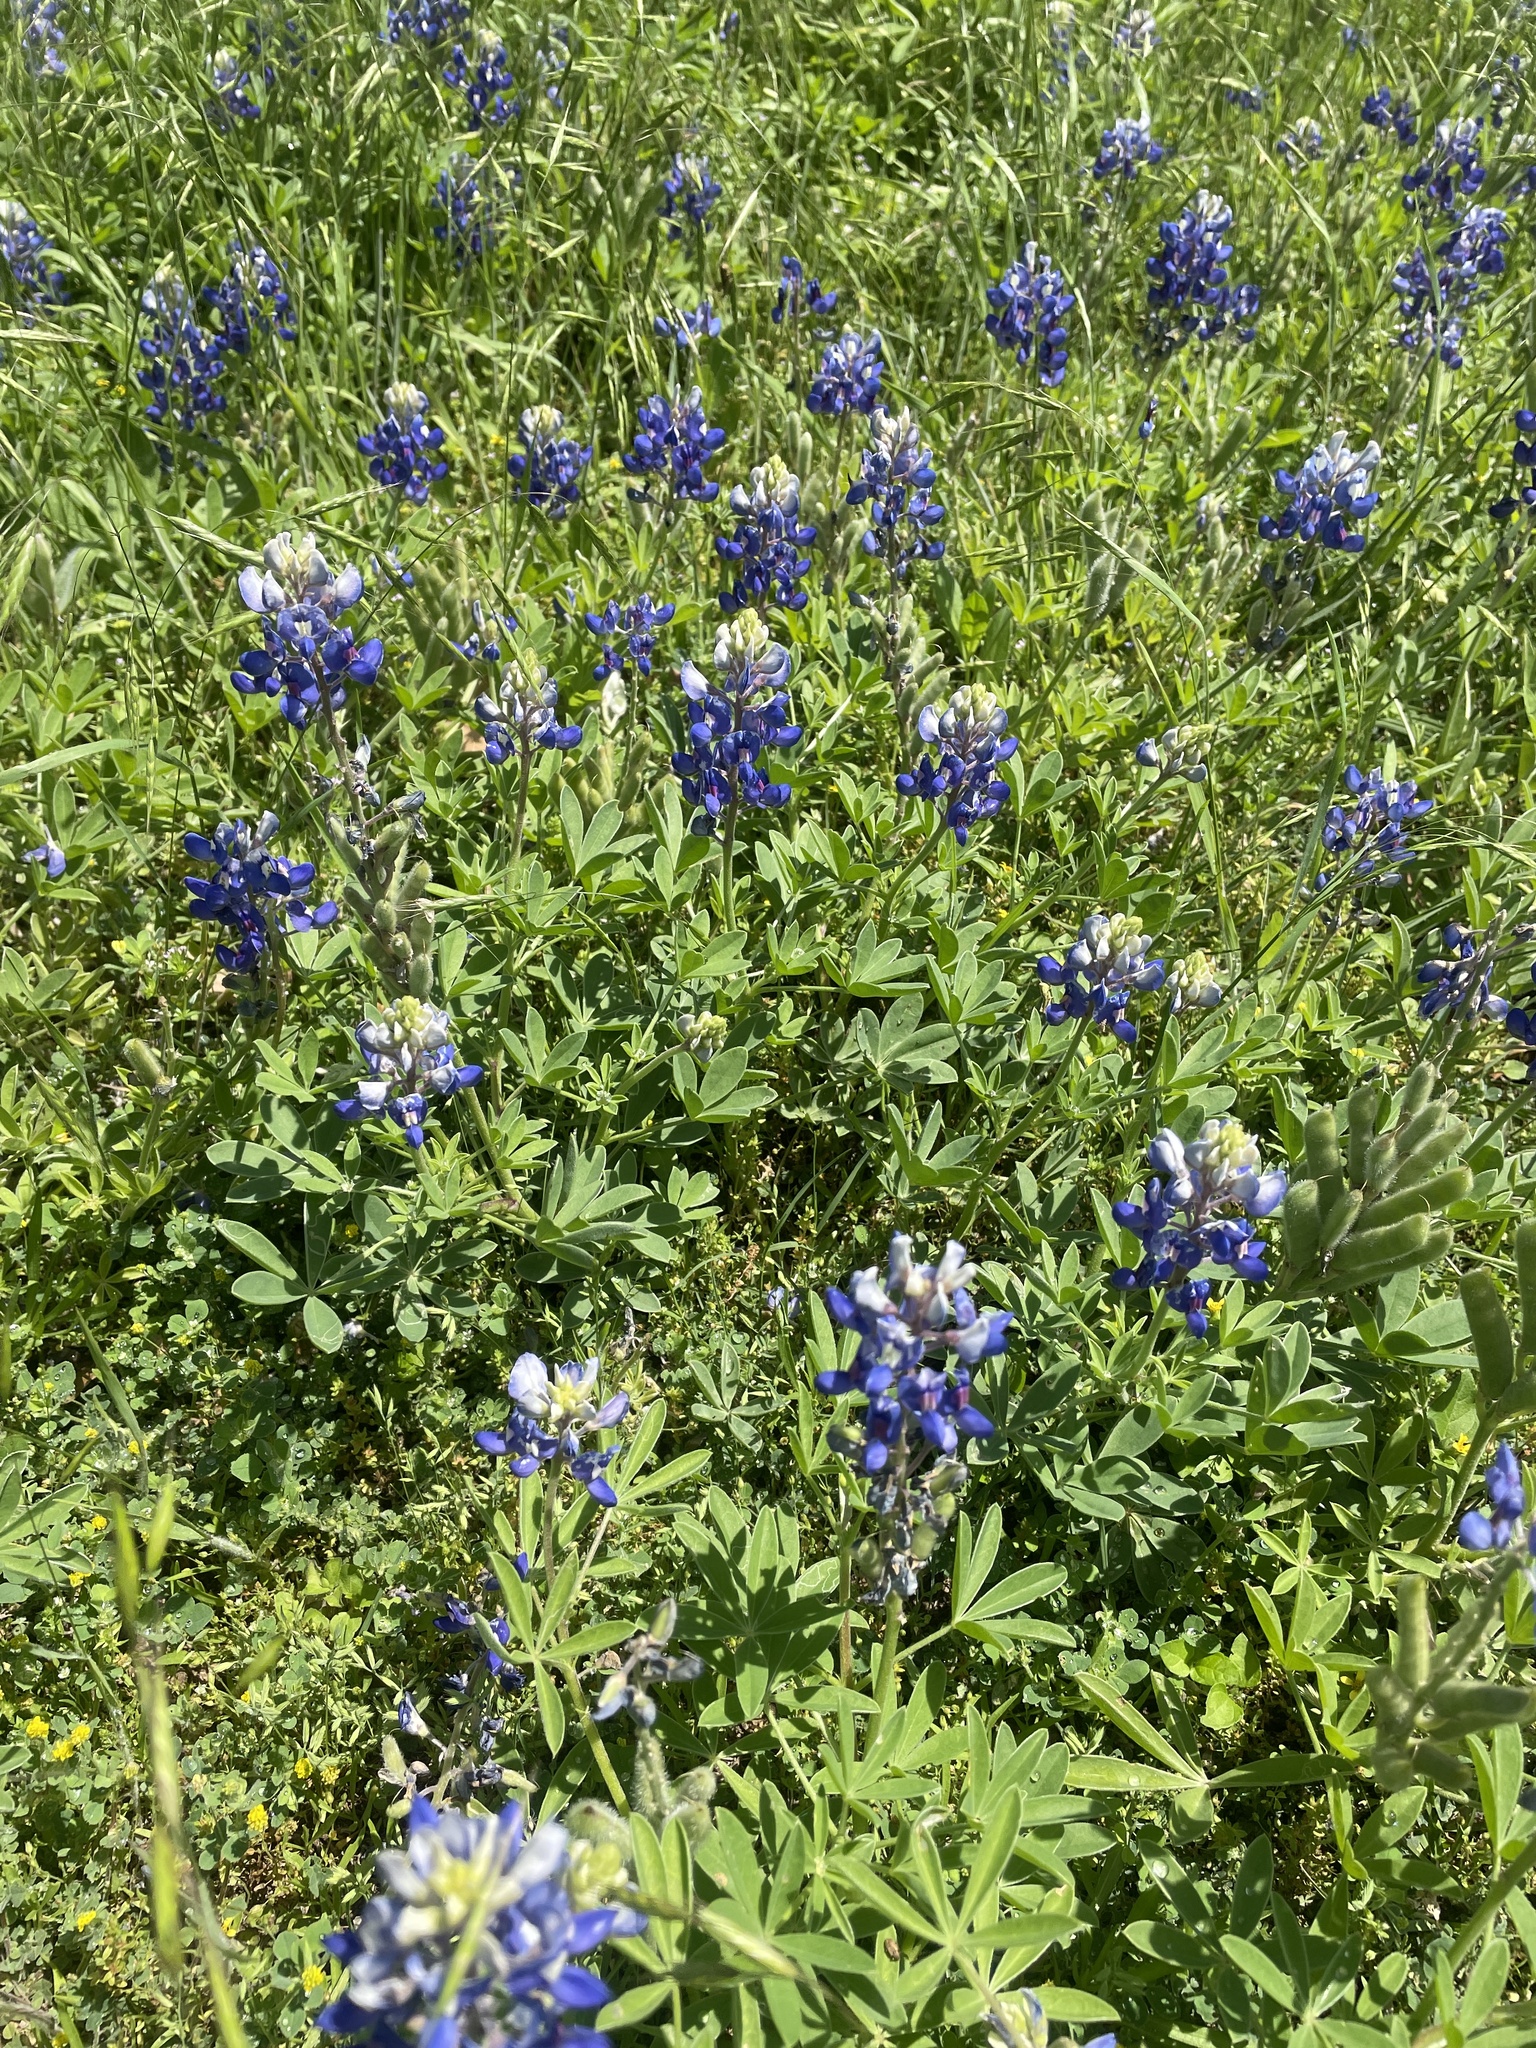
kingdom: Plantae
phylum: Tracheophyta
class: Magnoliopsida
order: Fabales
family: Fabaceae
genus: Lupinus
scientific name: Lupinus texensis
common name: Texas bluebonnet
